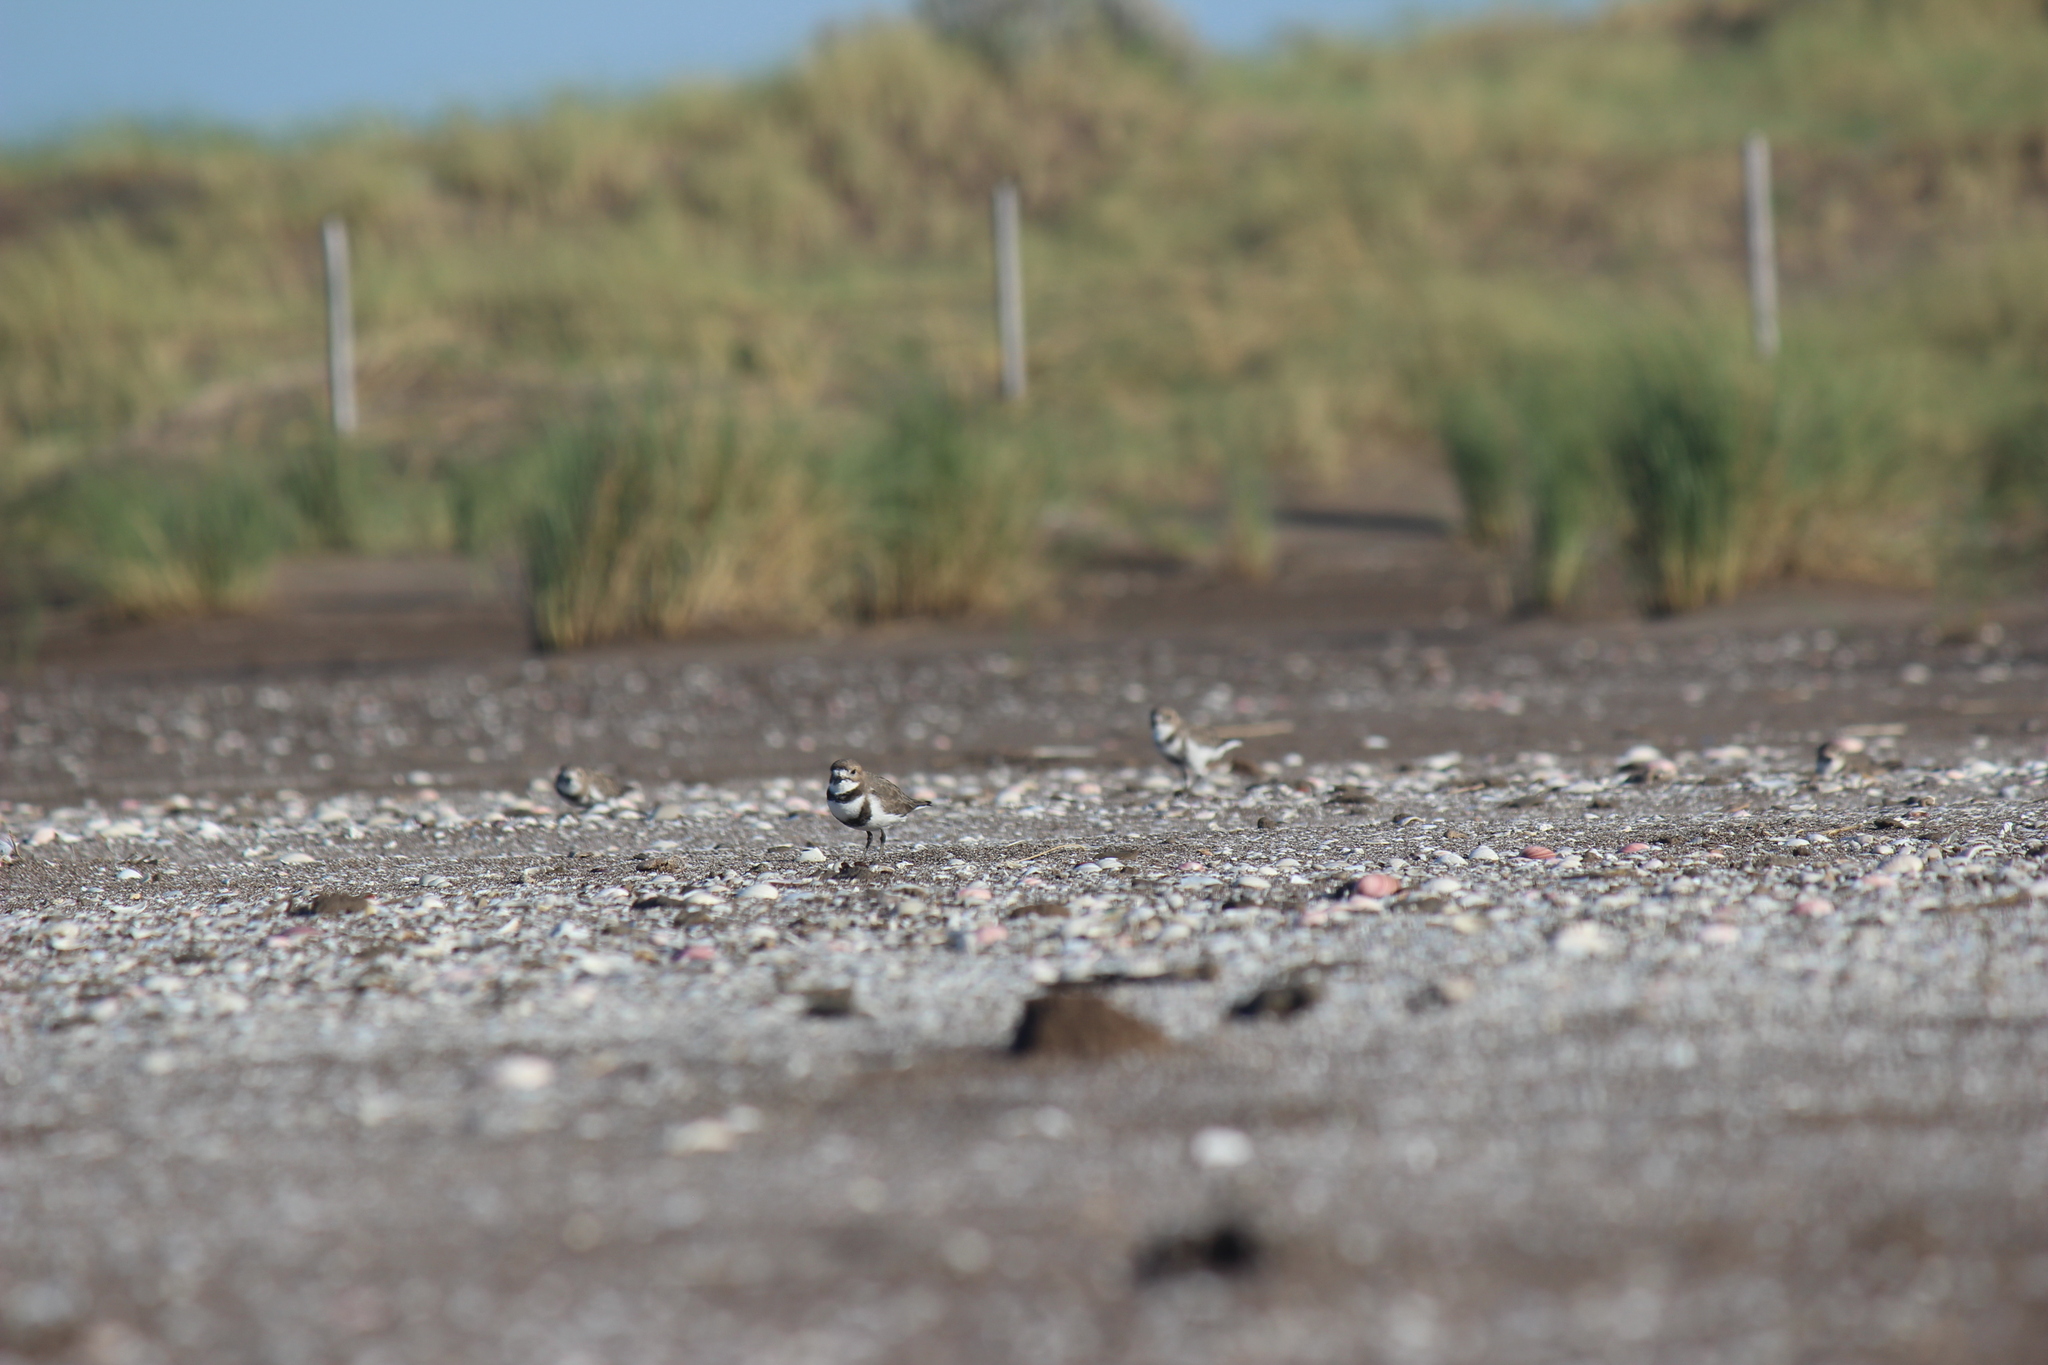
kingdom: Animalia
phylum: Chordata
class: Aves
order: Charadriiformes
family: Charadriidae
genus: Anarhynchus
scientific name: Anarhynchus
